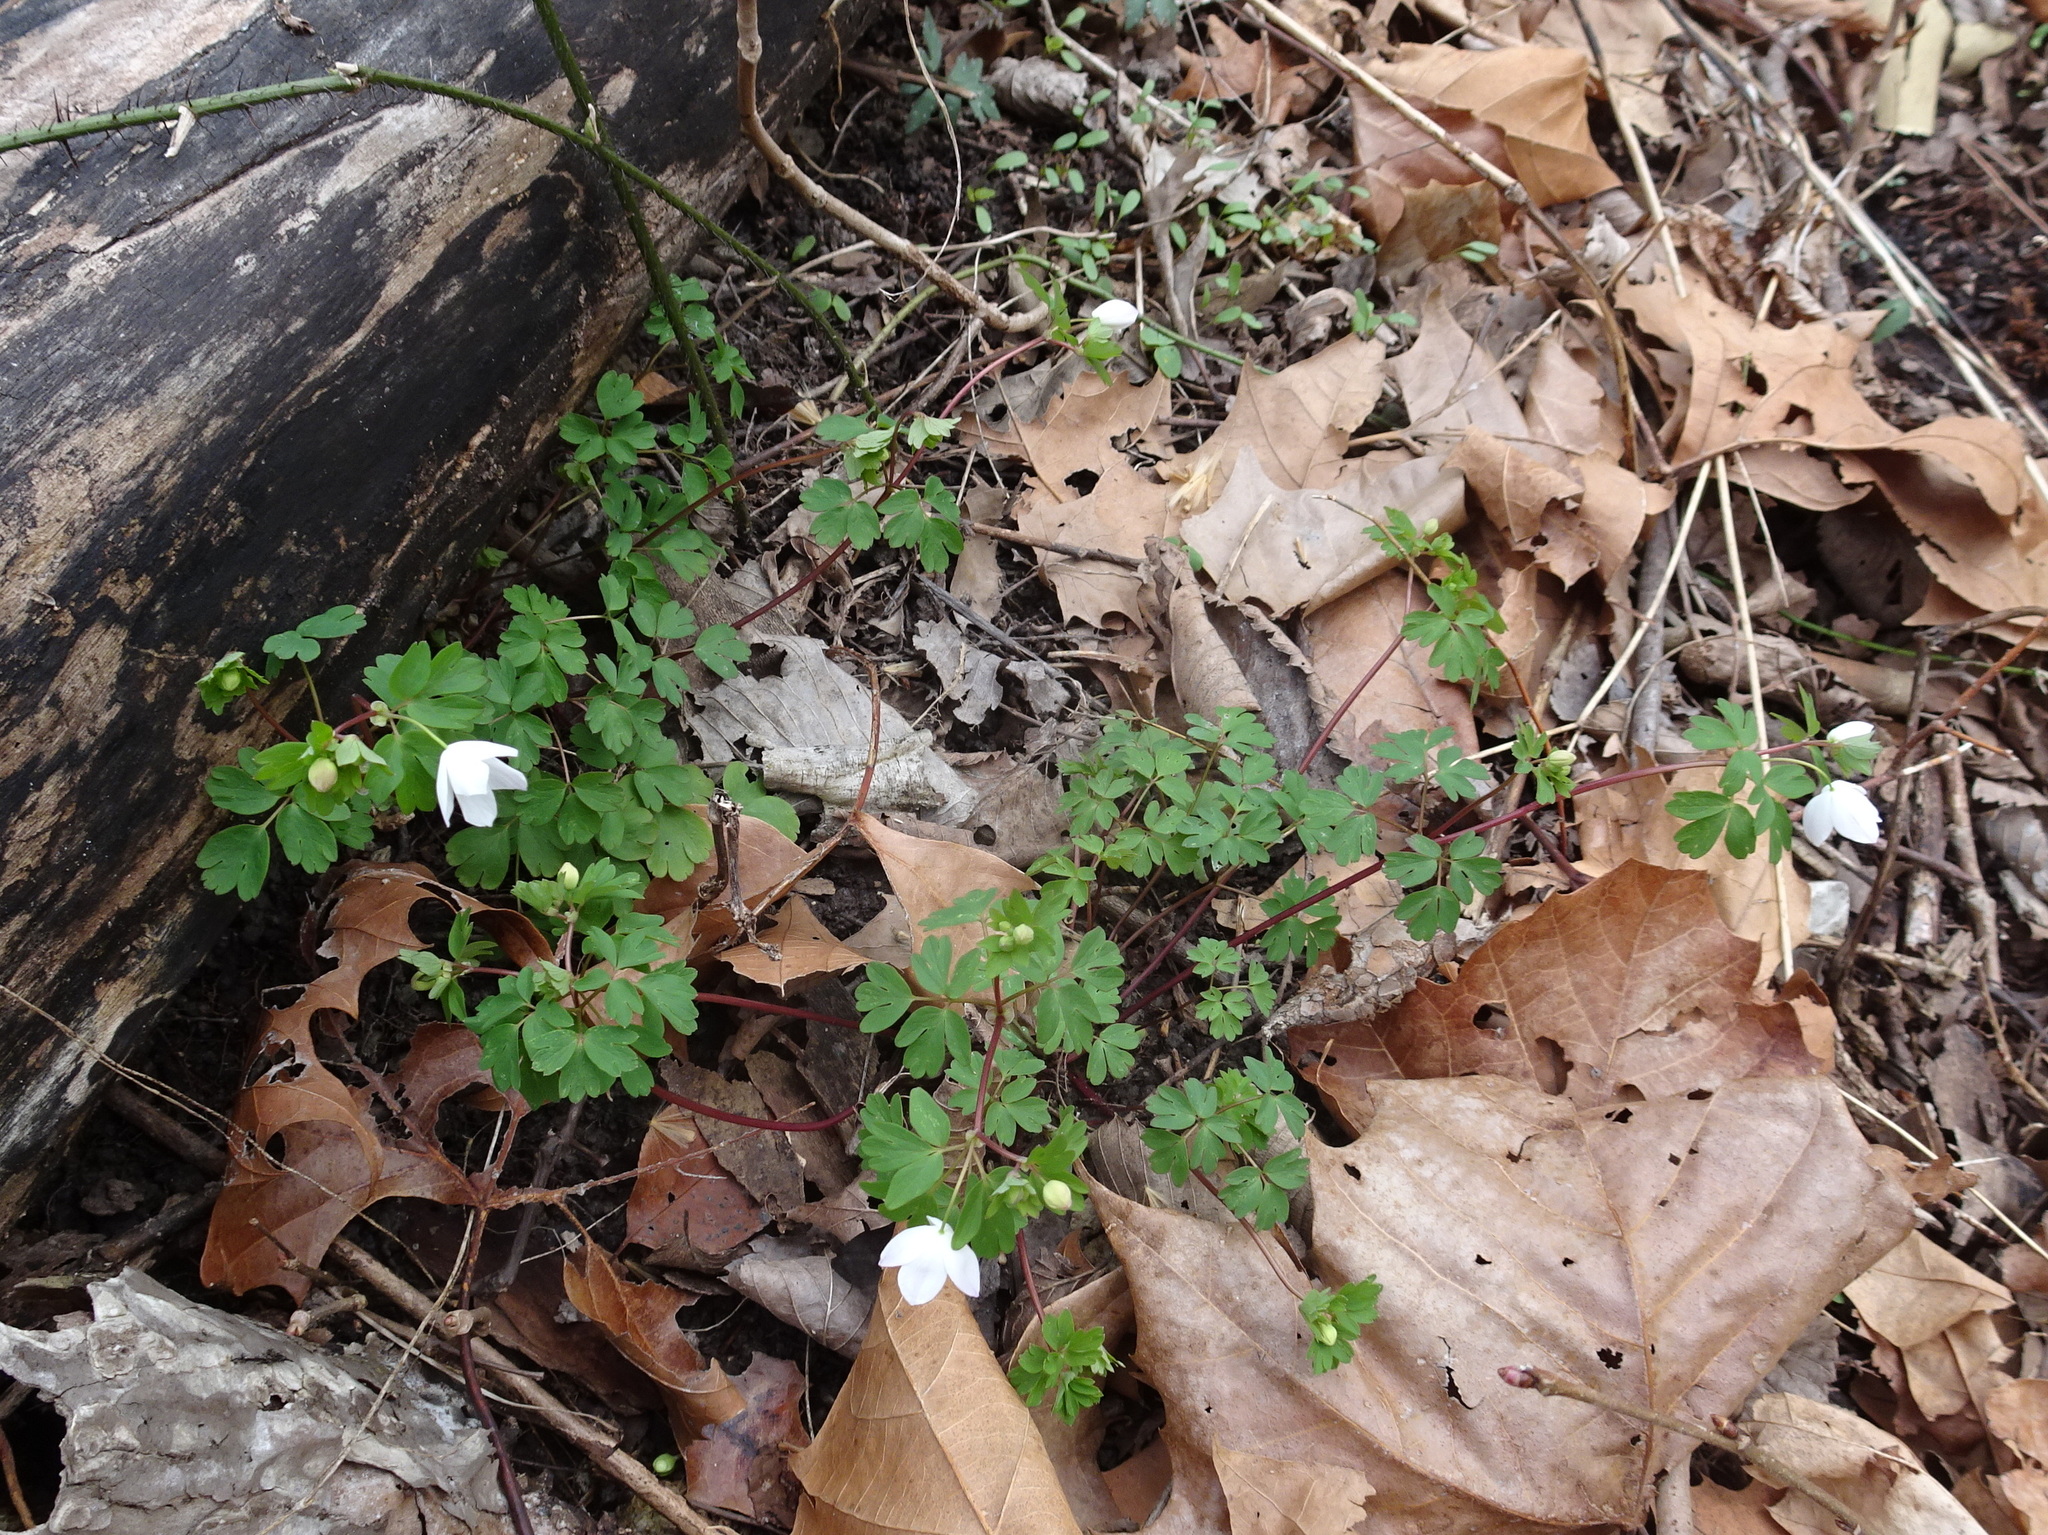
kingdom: Plantae
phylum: Tracheophyta
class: Magnoliopsida
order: Ranunculales
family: Ranunculaceae
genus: Enemion
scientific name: Enemion biternatum
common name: Eastern false rue-anemone
